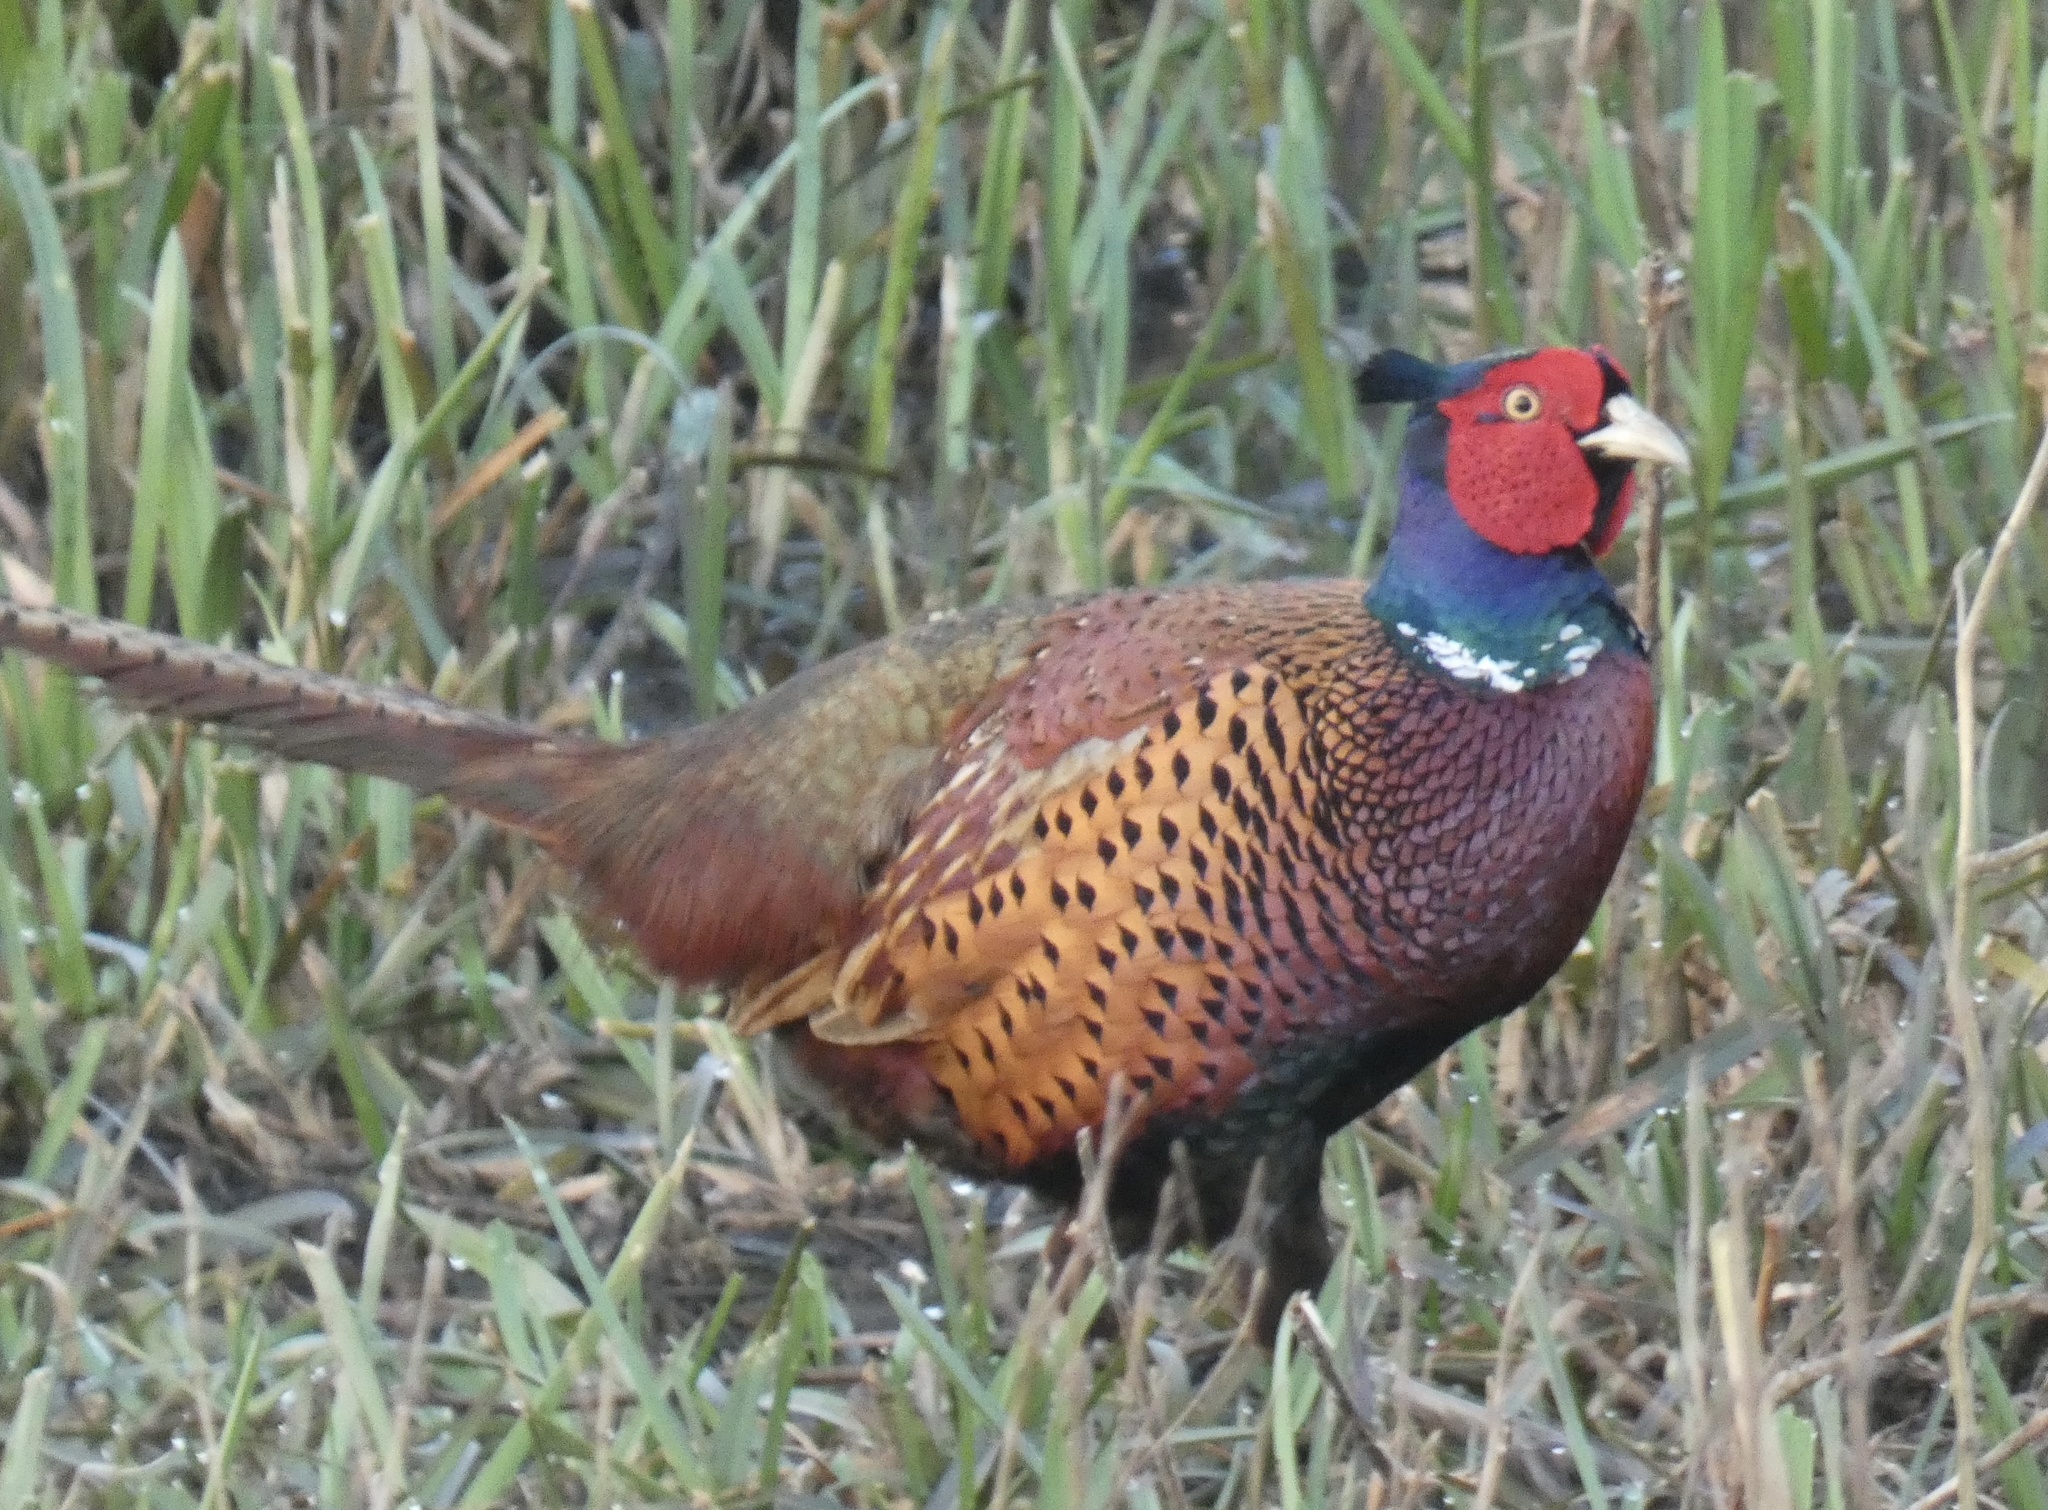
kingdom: Animalia
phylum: Chordata
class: Aves
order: Galliformes
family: Phasianidae
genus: Phasianus
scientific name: Phasianus colchicus
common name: Common pheasant
